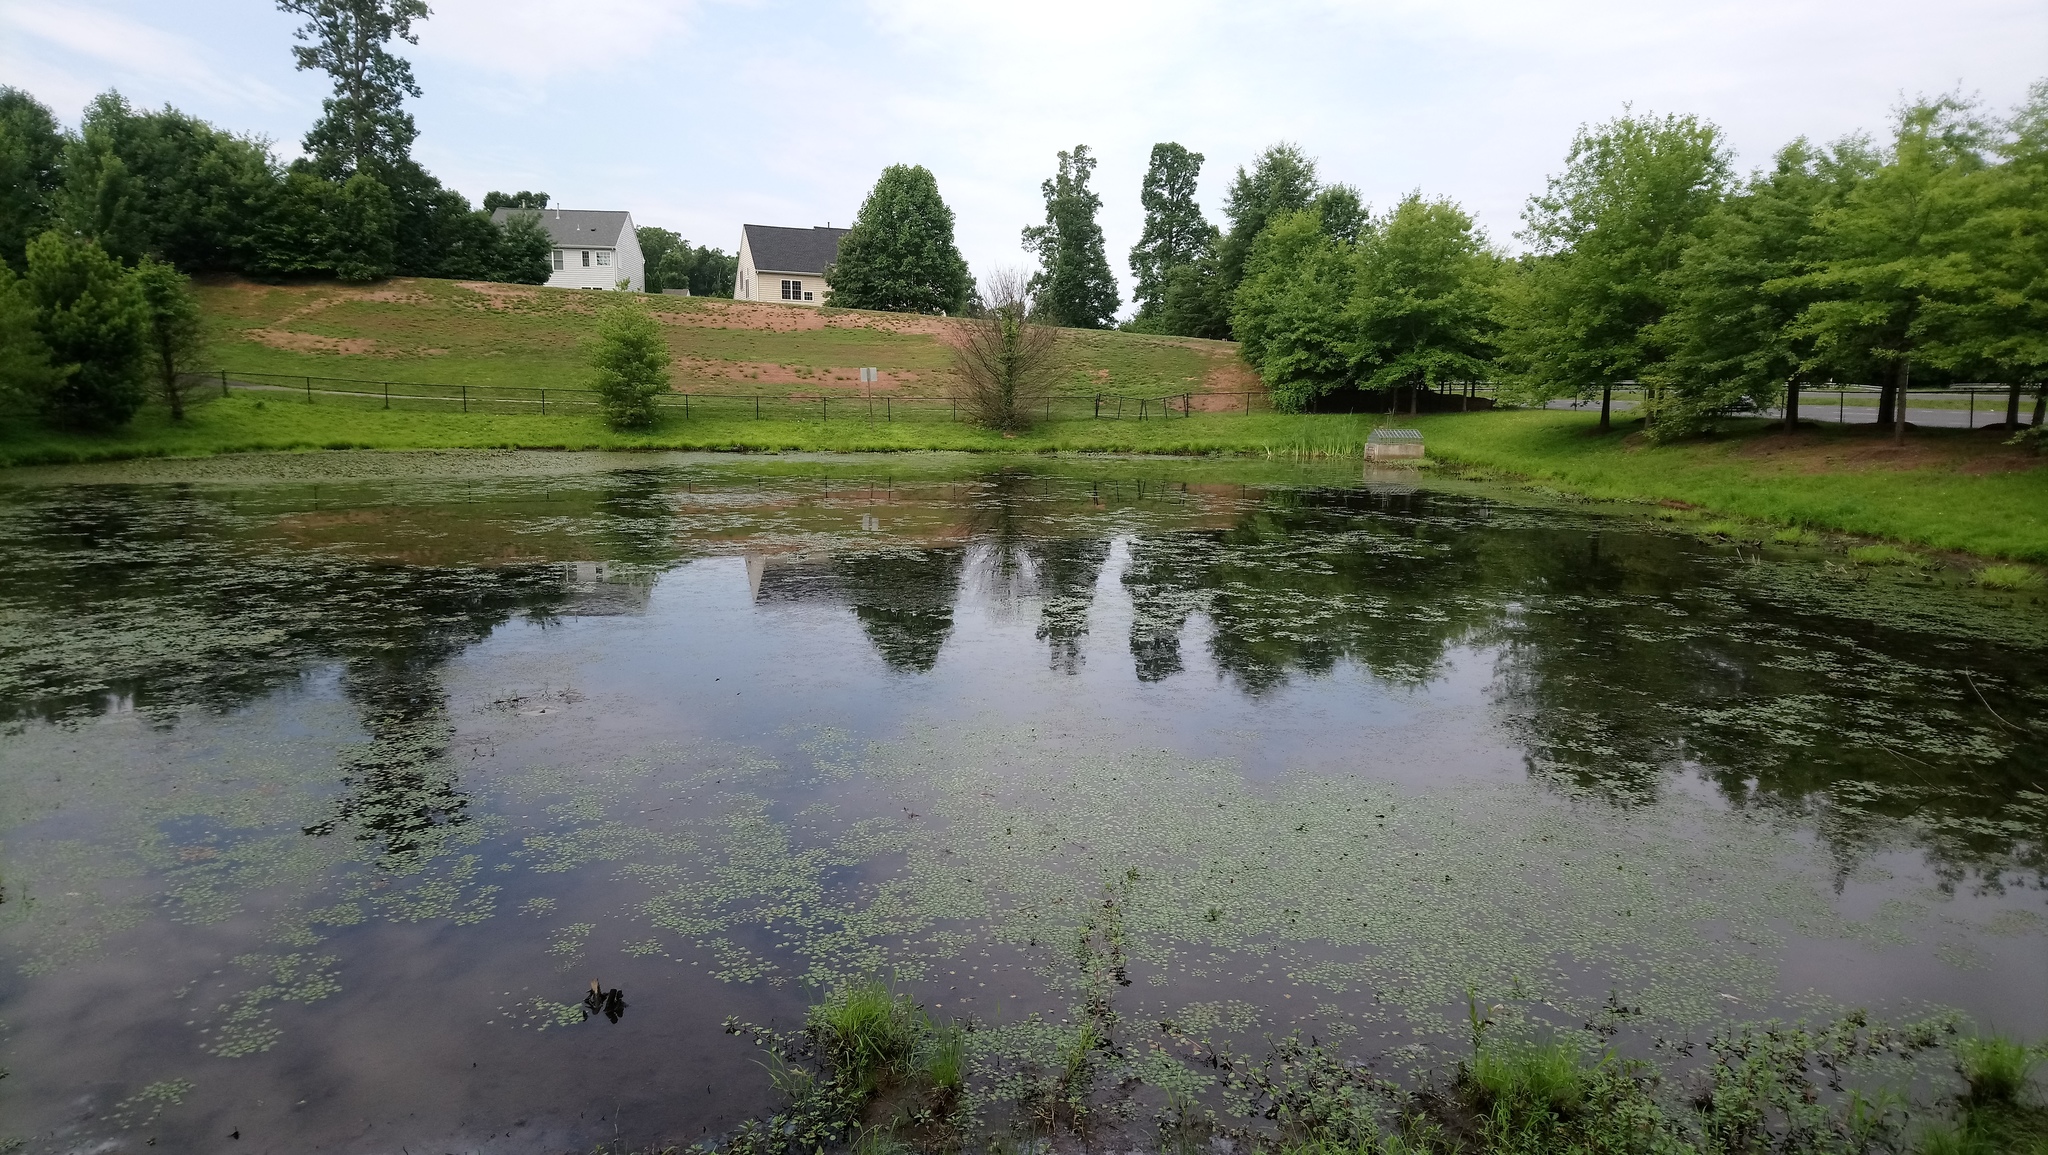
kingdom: Plantae
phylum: Tracheophyta
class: Magnoliopsida
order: Myrtales
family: Lythraceae
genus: Trapa
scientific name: Trapa natans
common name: Water chestnut
